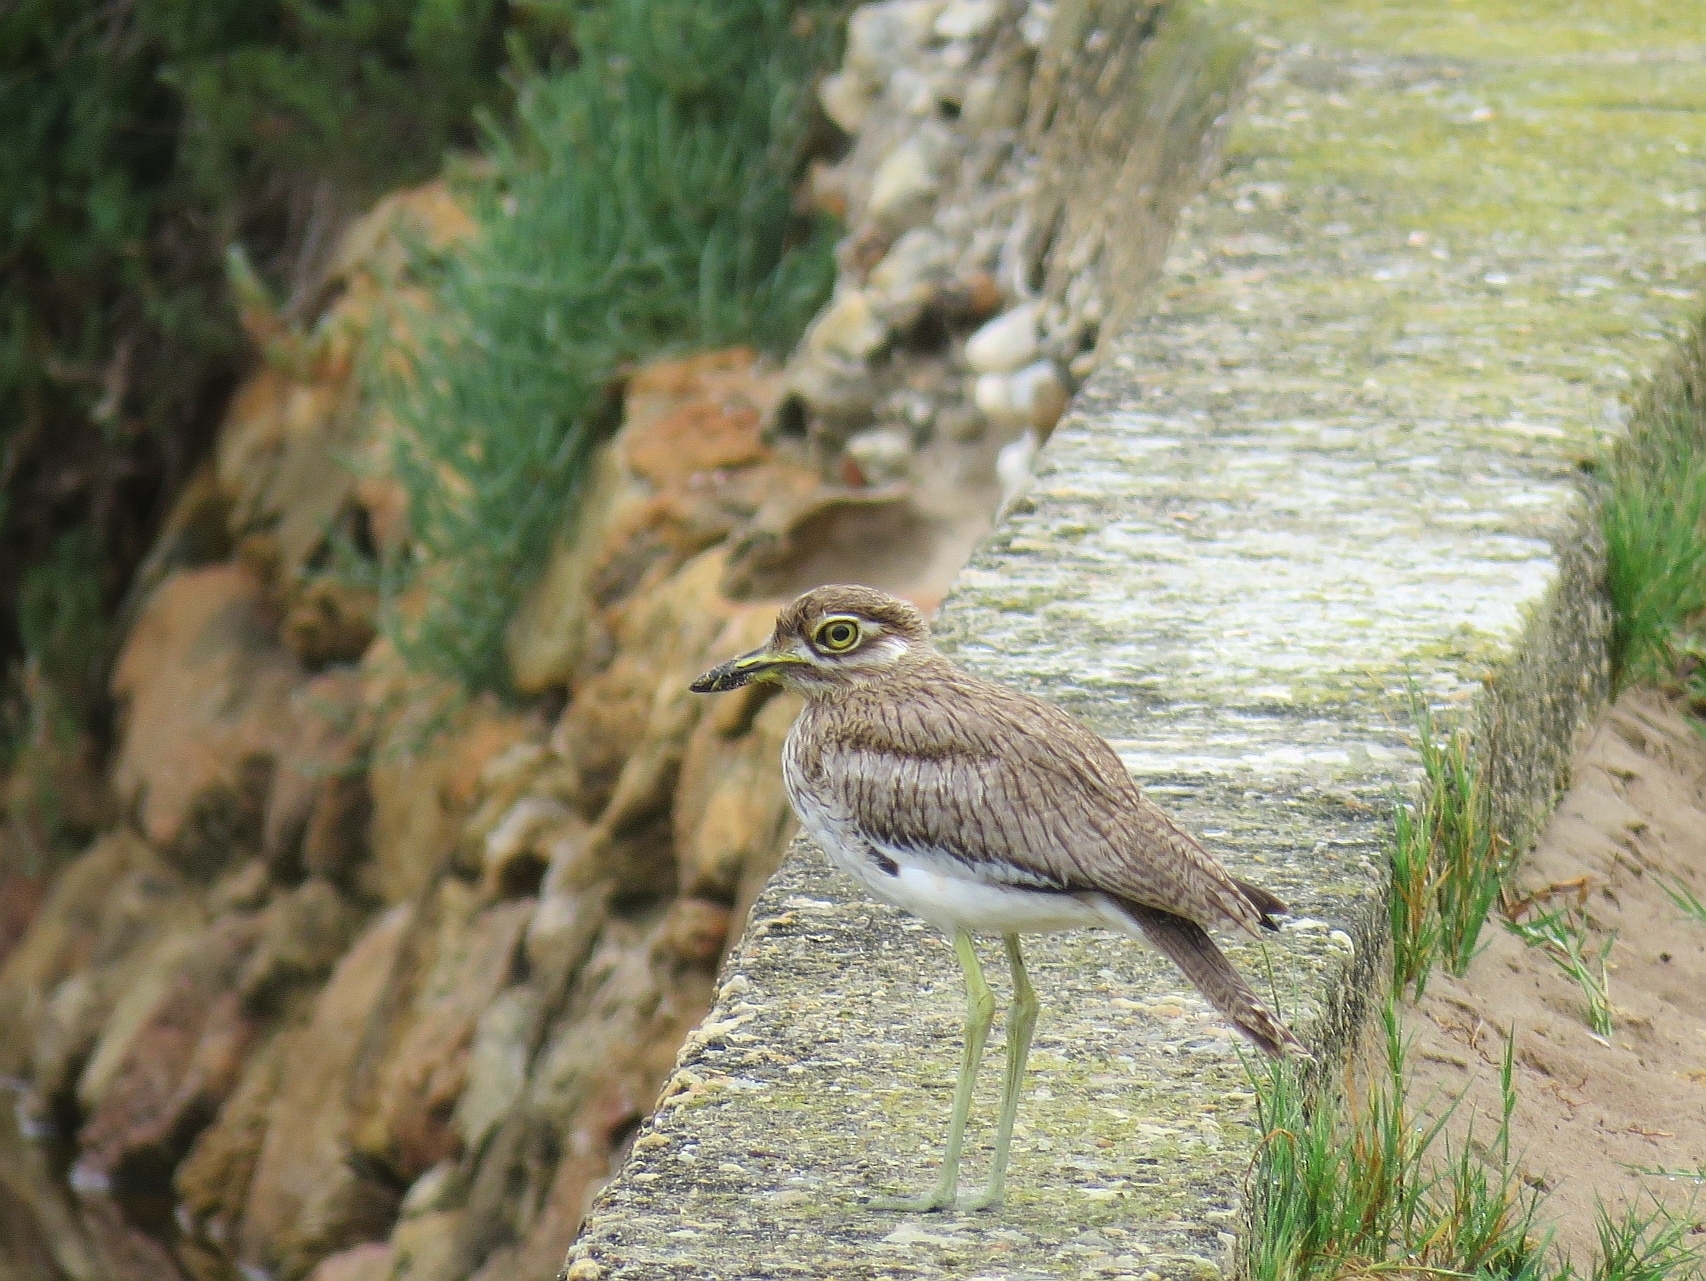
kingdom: Animalia
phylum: Chordata
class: Aves
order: Charadriiformes
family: Burhinidae
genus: Burhinus
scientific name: Burhinus vermiculatus
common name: Water thick-knee
